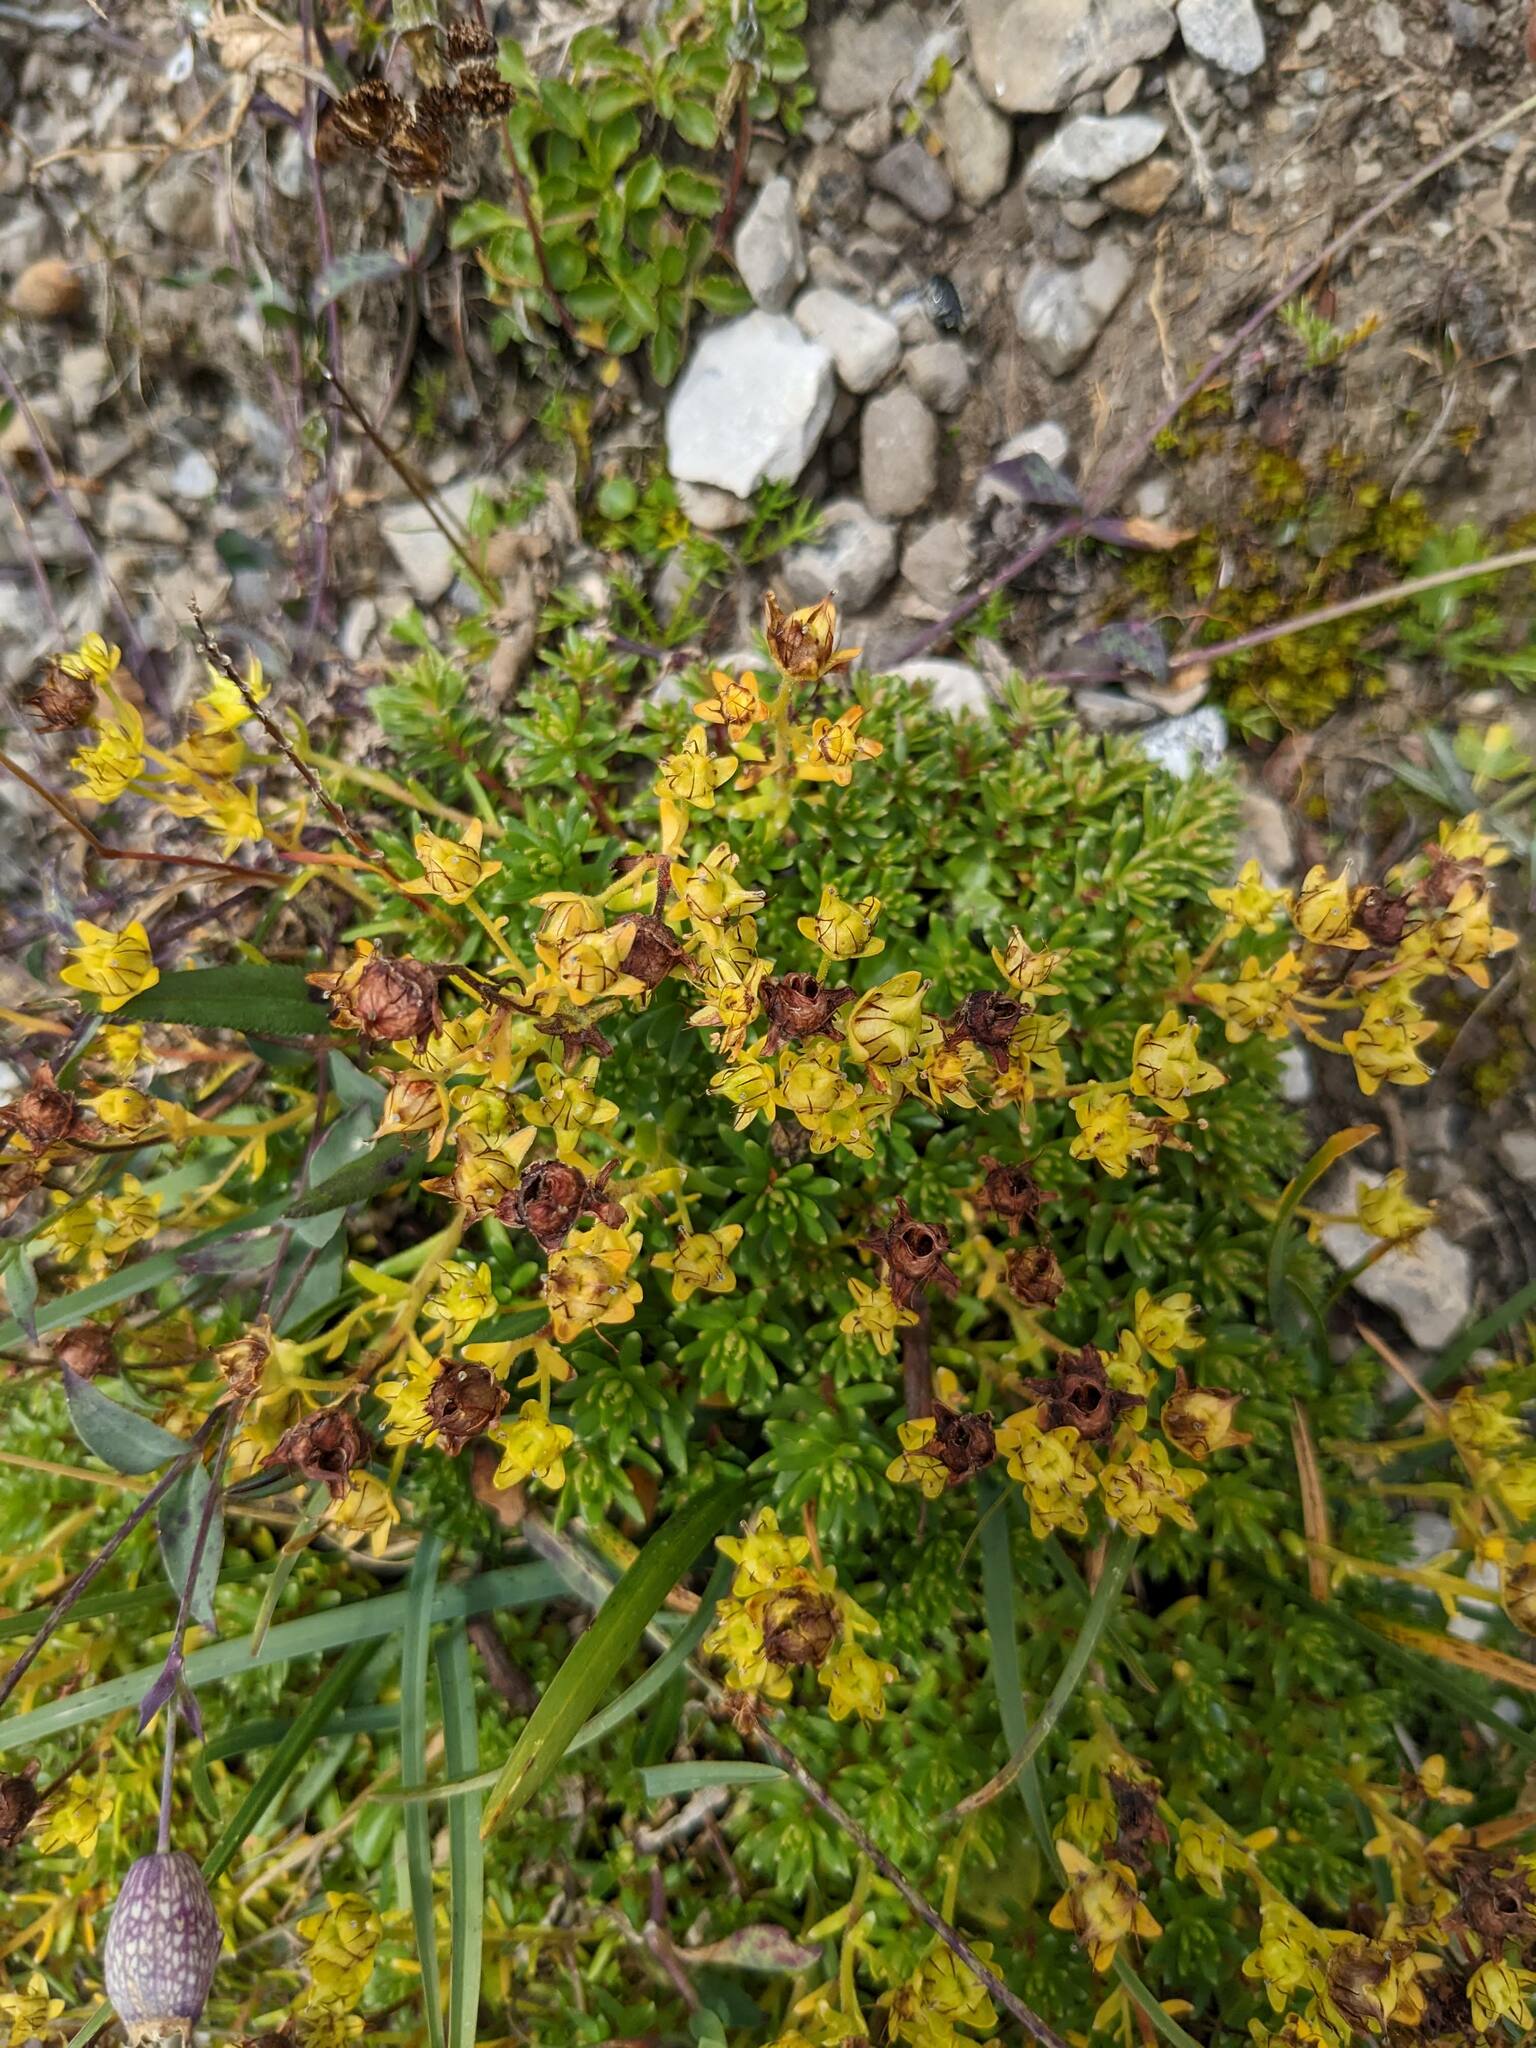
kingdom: Plantae
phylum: Tracheophyta
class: Magnoliopsida
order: Saxifragales
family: Saxifragaceae
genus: Saxifraga
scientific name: Saxifraga aizoides
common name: Yellow mountain saxifrage
